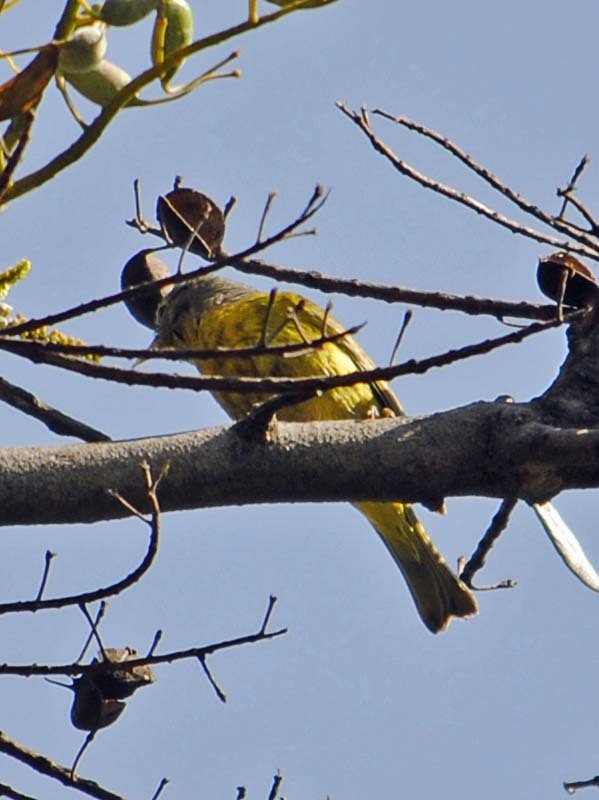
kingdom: Animalia
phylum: Chordata
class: Aves
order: Passeriformes
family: Parulidae
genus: Leiothlypis
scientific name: Leiothlypis ruficapilla
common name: Nashville warbler
